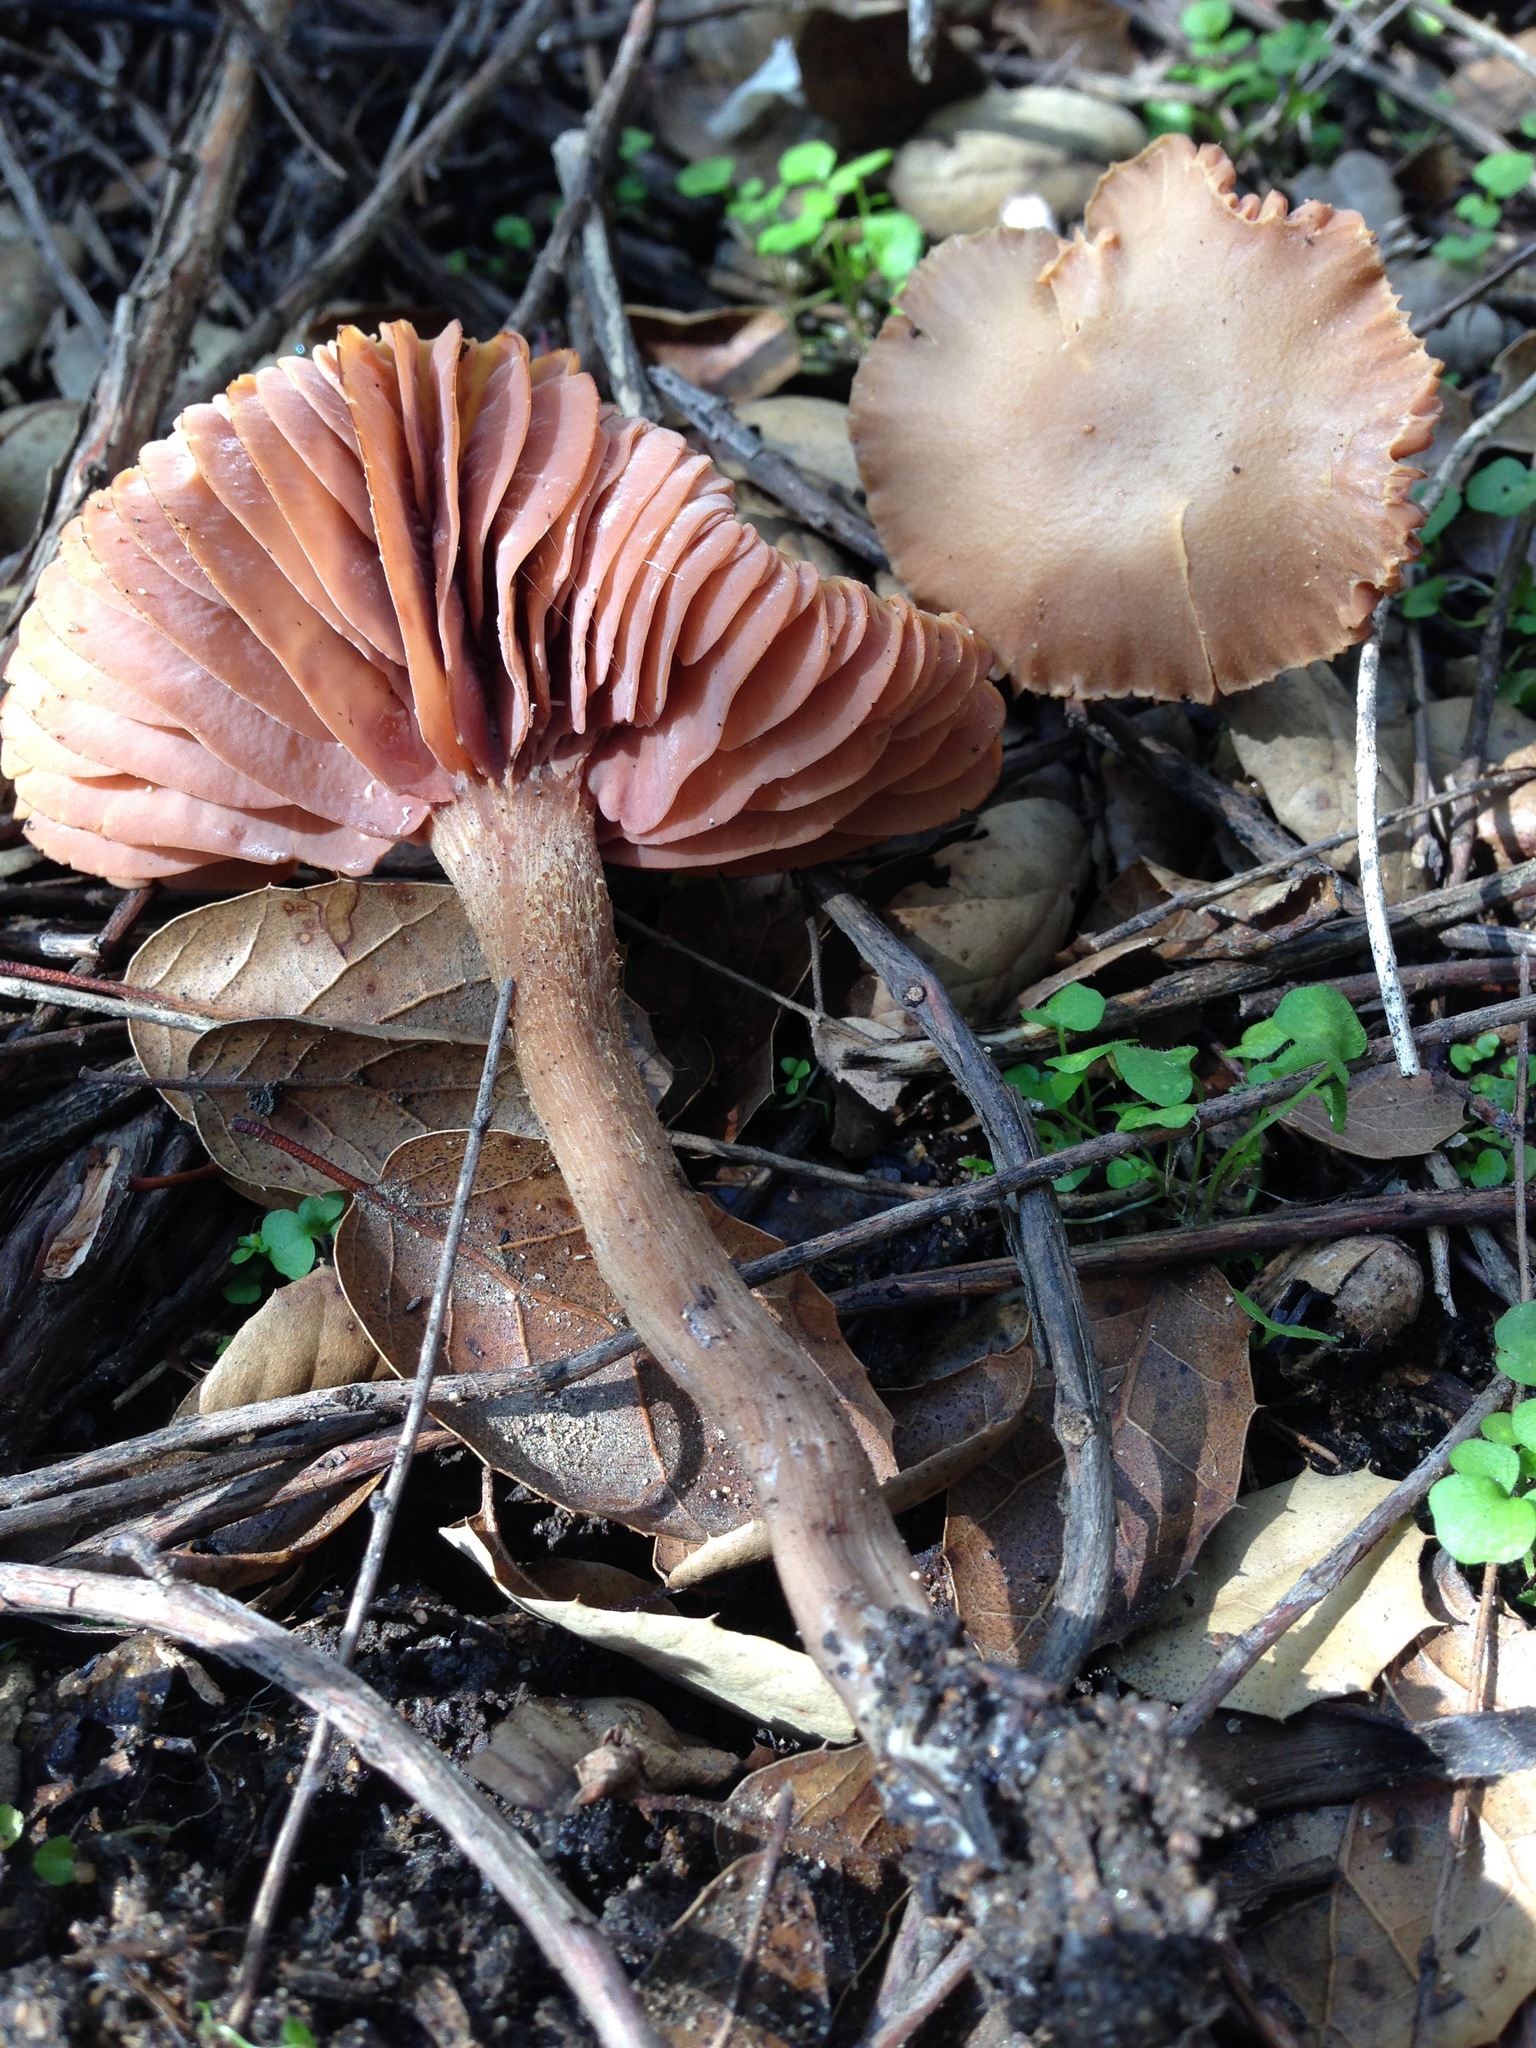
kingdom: Fungi
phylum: Basidiomycota
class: Agaricomycetes
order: Agaricales
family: Hydnangiaceae
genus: Laccaria
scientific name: Laccaria amethysteo-occidentalis
